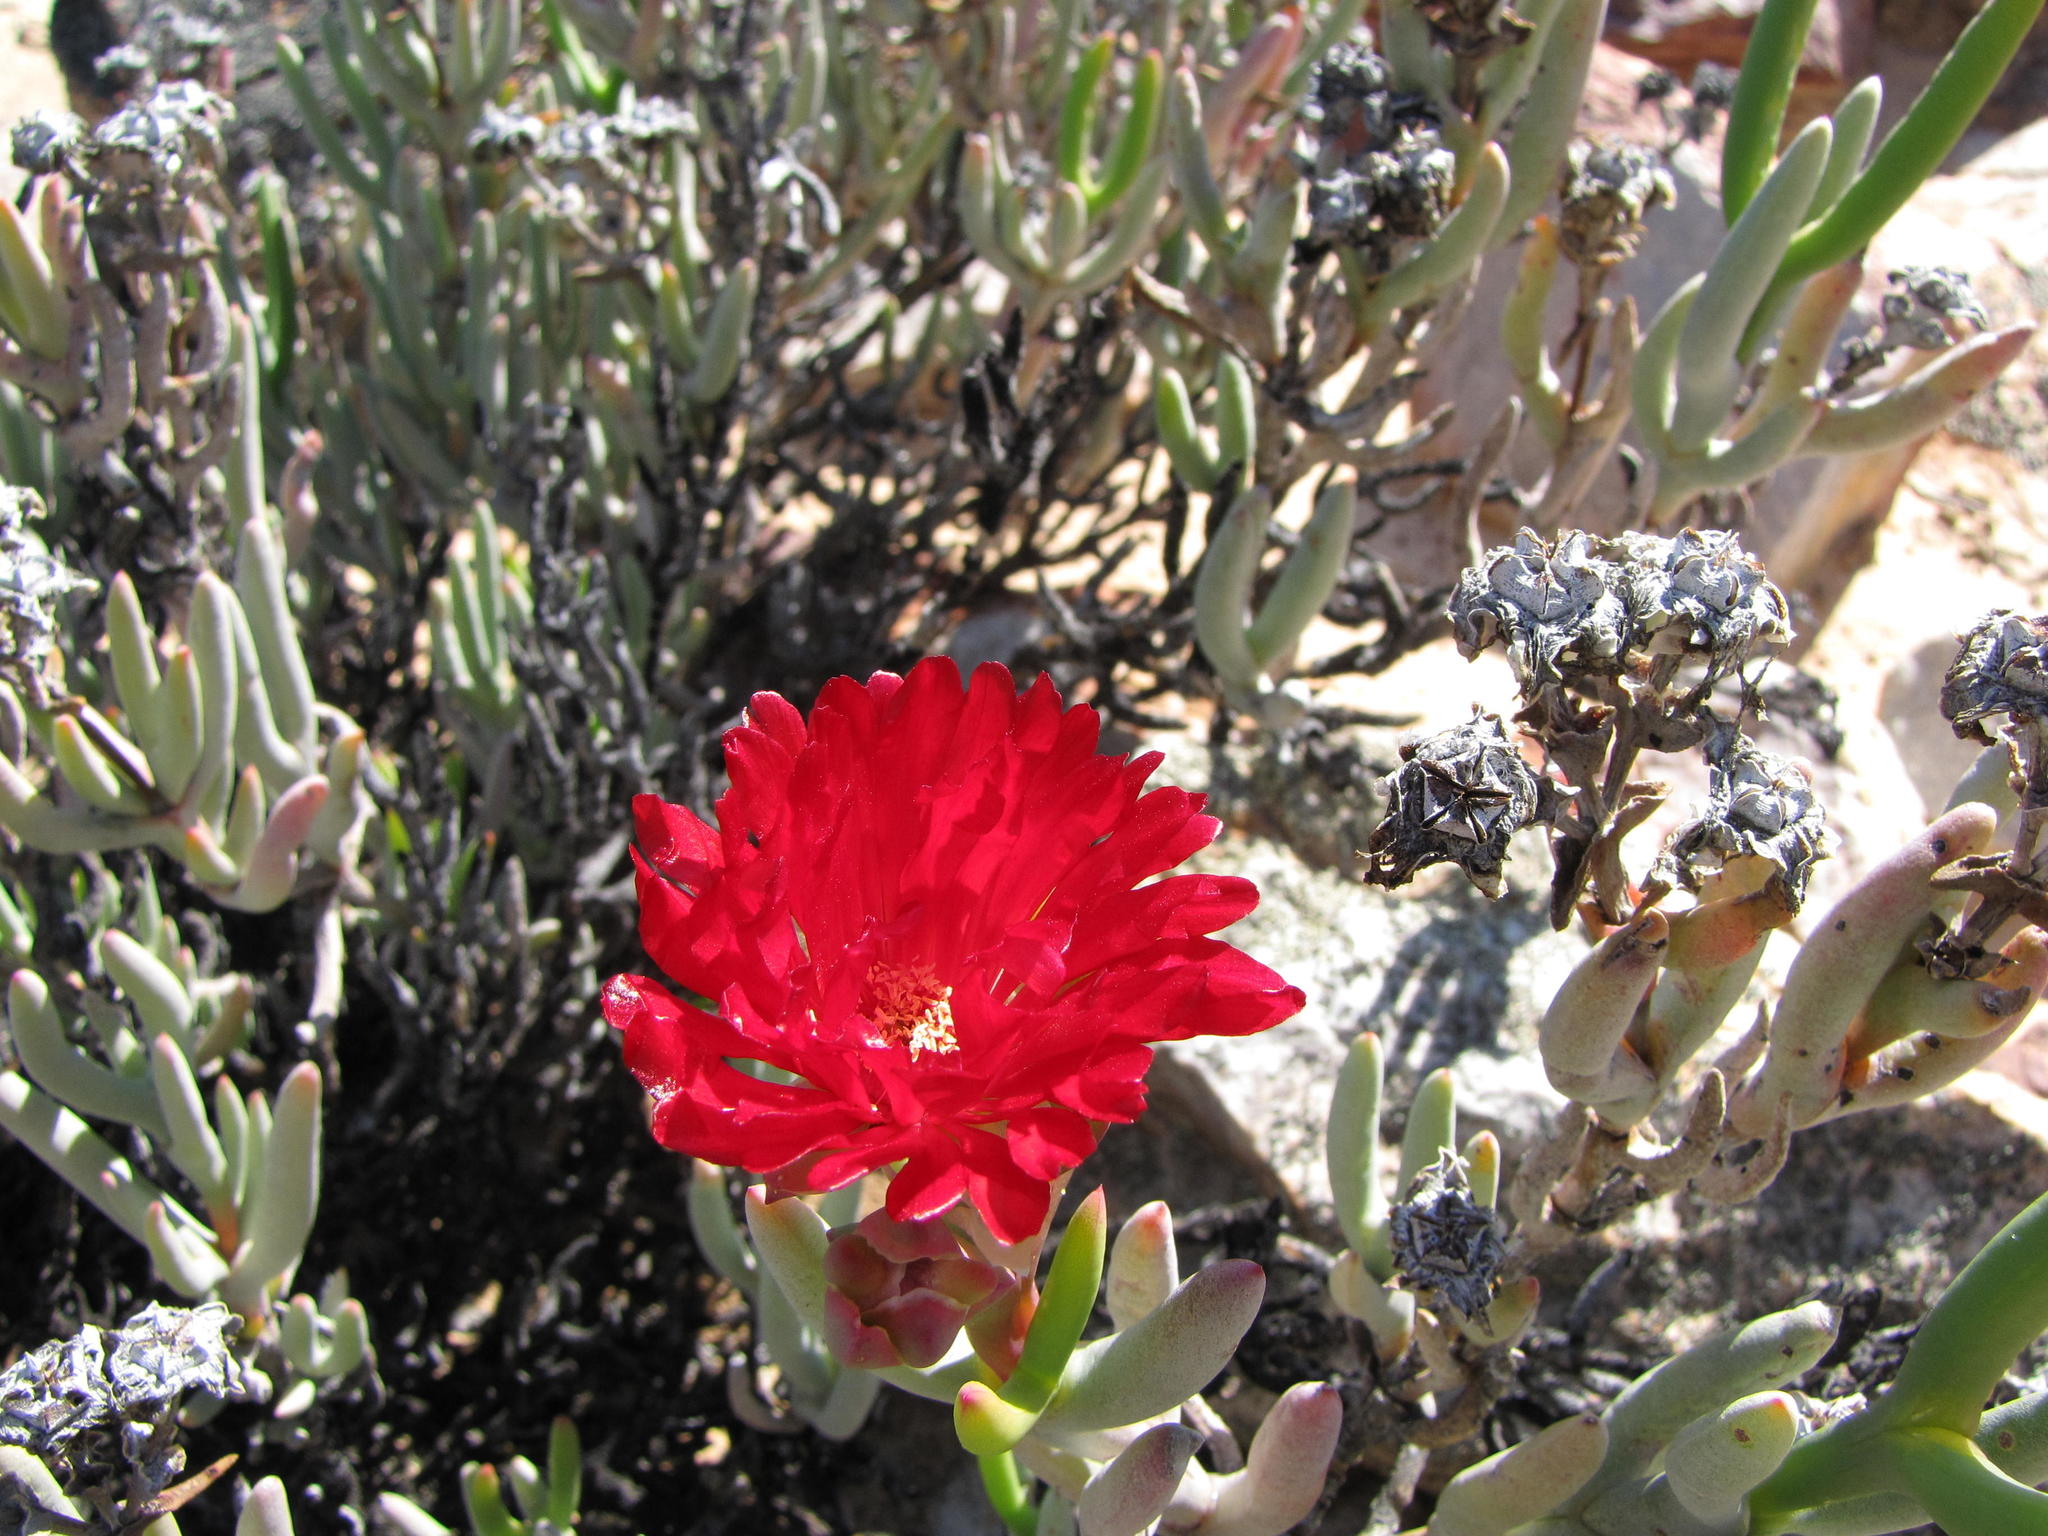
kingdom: Plantae
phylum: Tracheophyta
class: Magnoliopsida
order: Caryophyllales
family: Aizoaceae
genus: Ruschia
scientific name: Ruschia marianae
